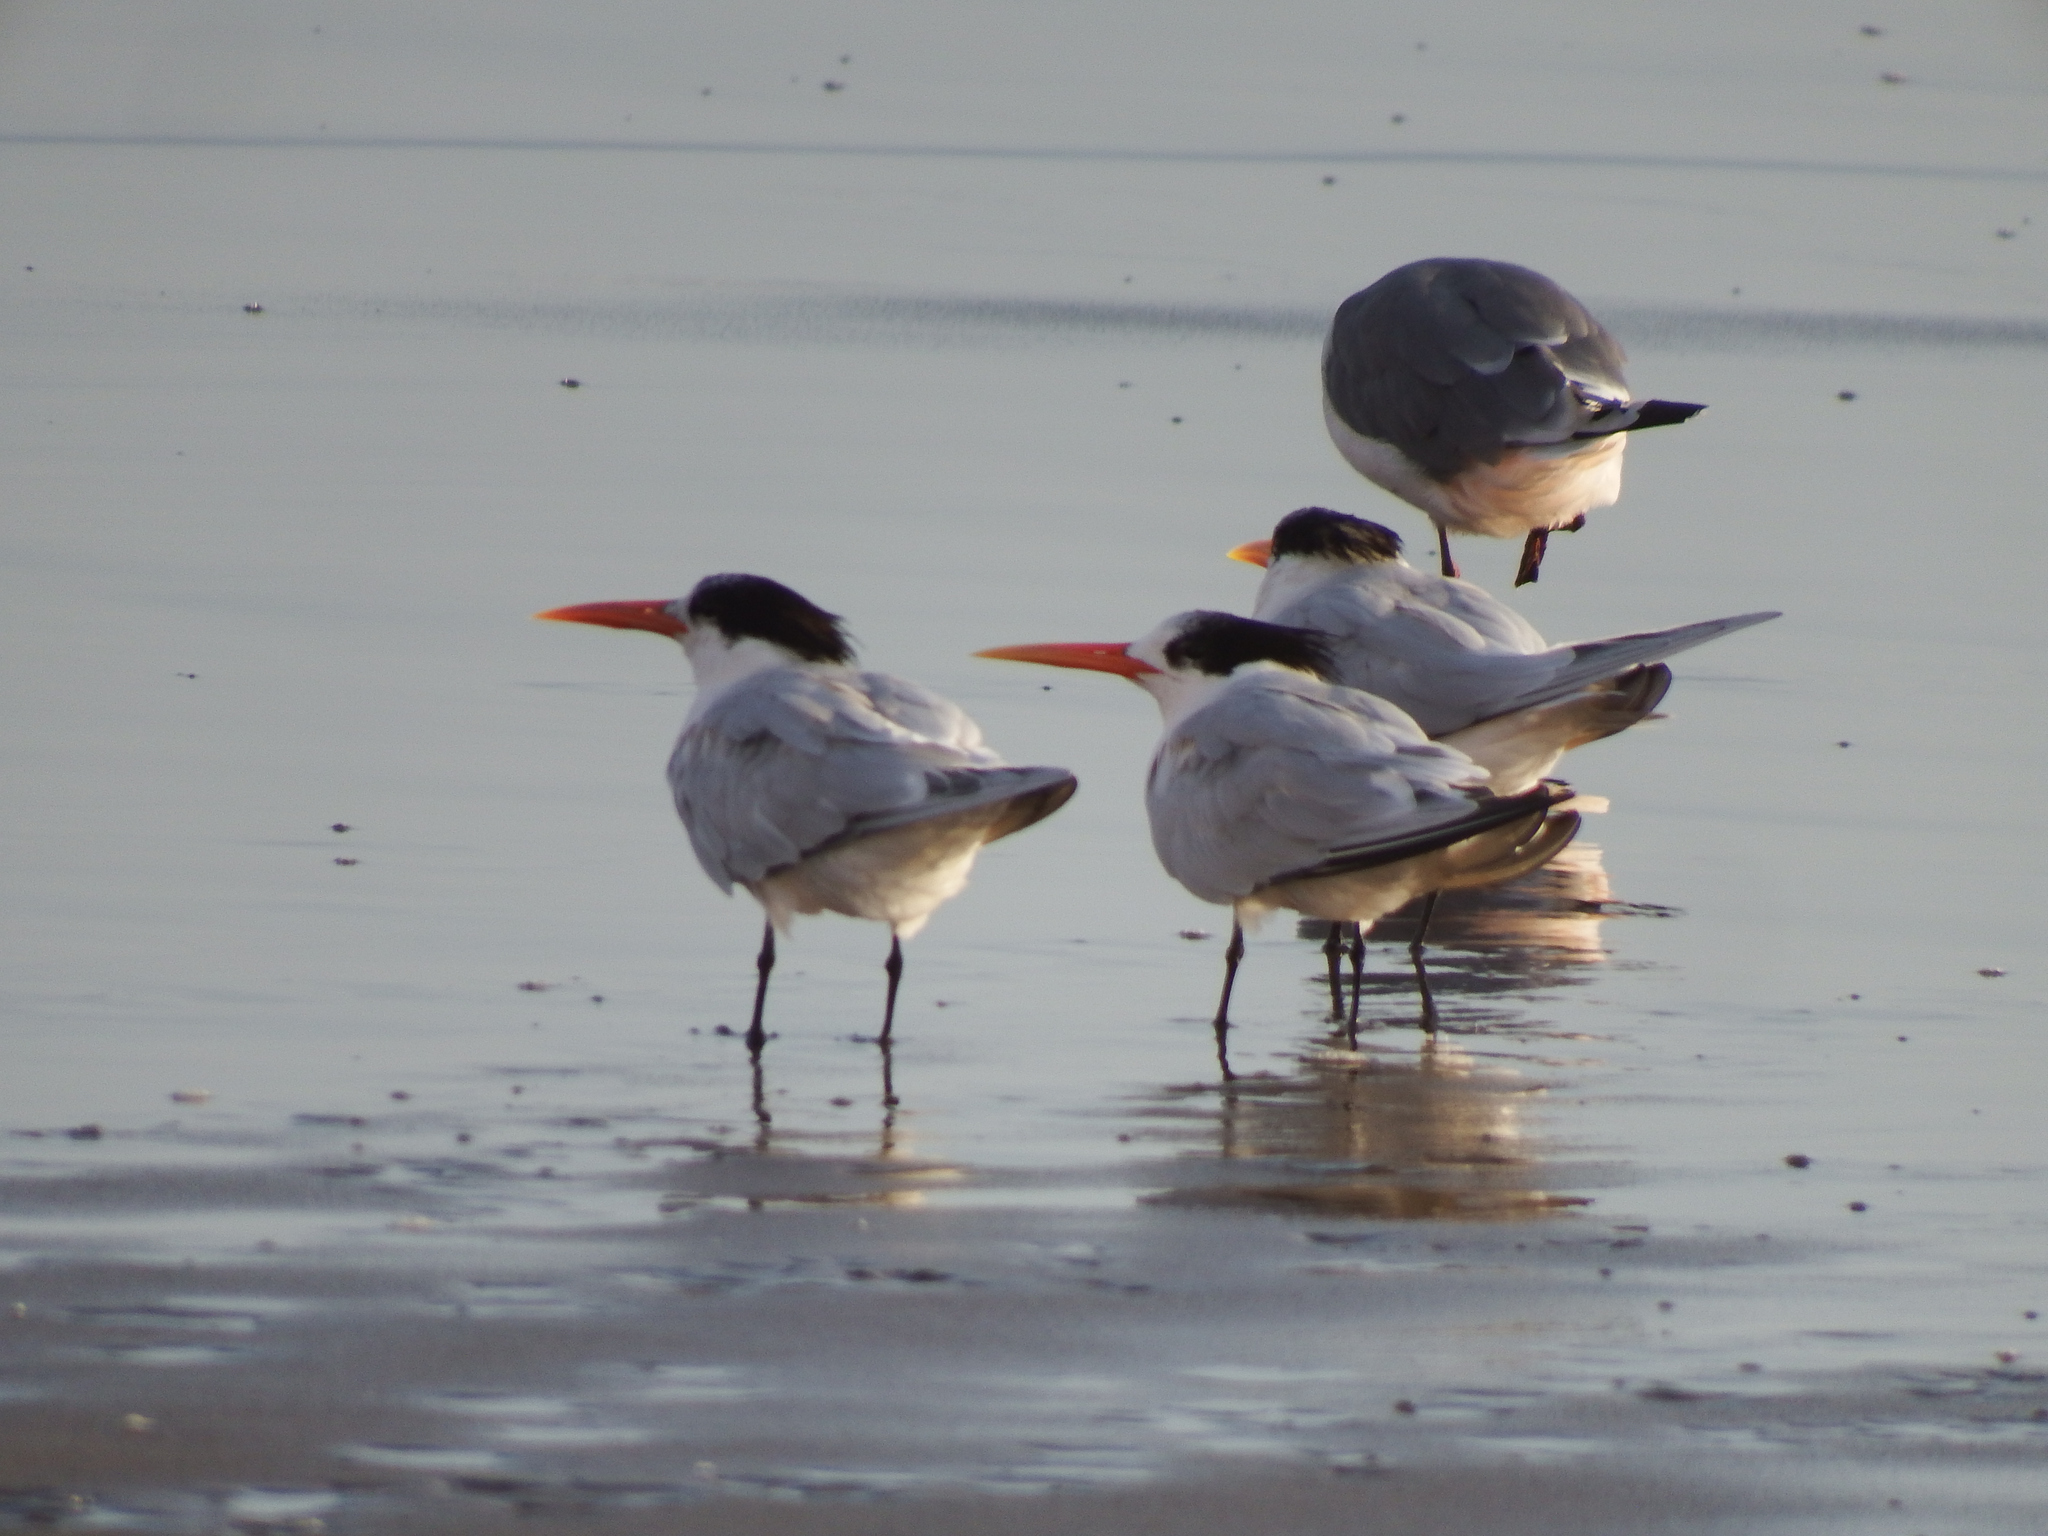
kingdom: Animalia
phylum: Chordata
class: Aves
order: Charadriiformes
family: Laridae
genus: Thalasseus
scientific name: Thalasseus elegans
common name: Elegant tern
